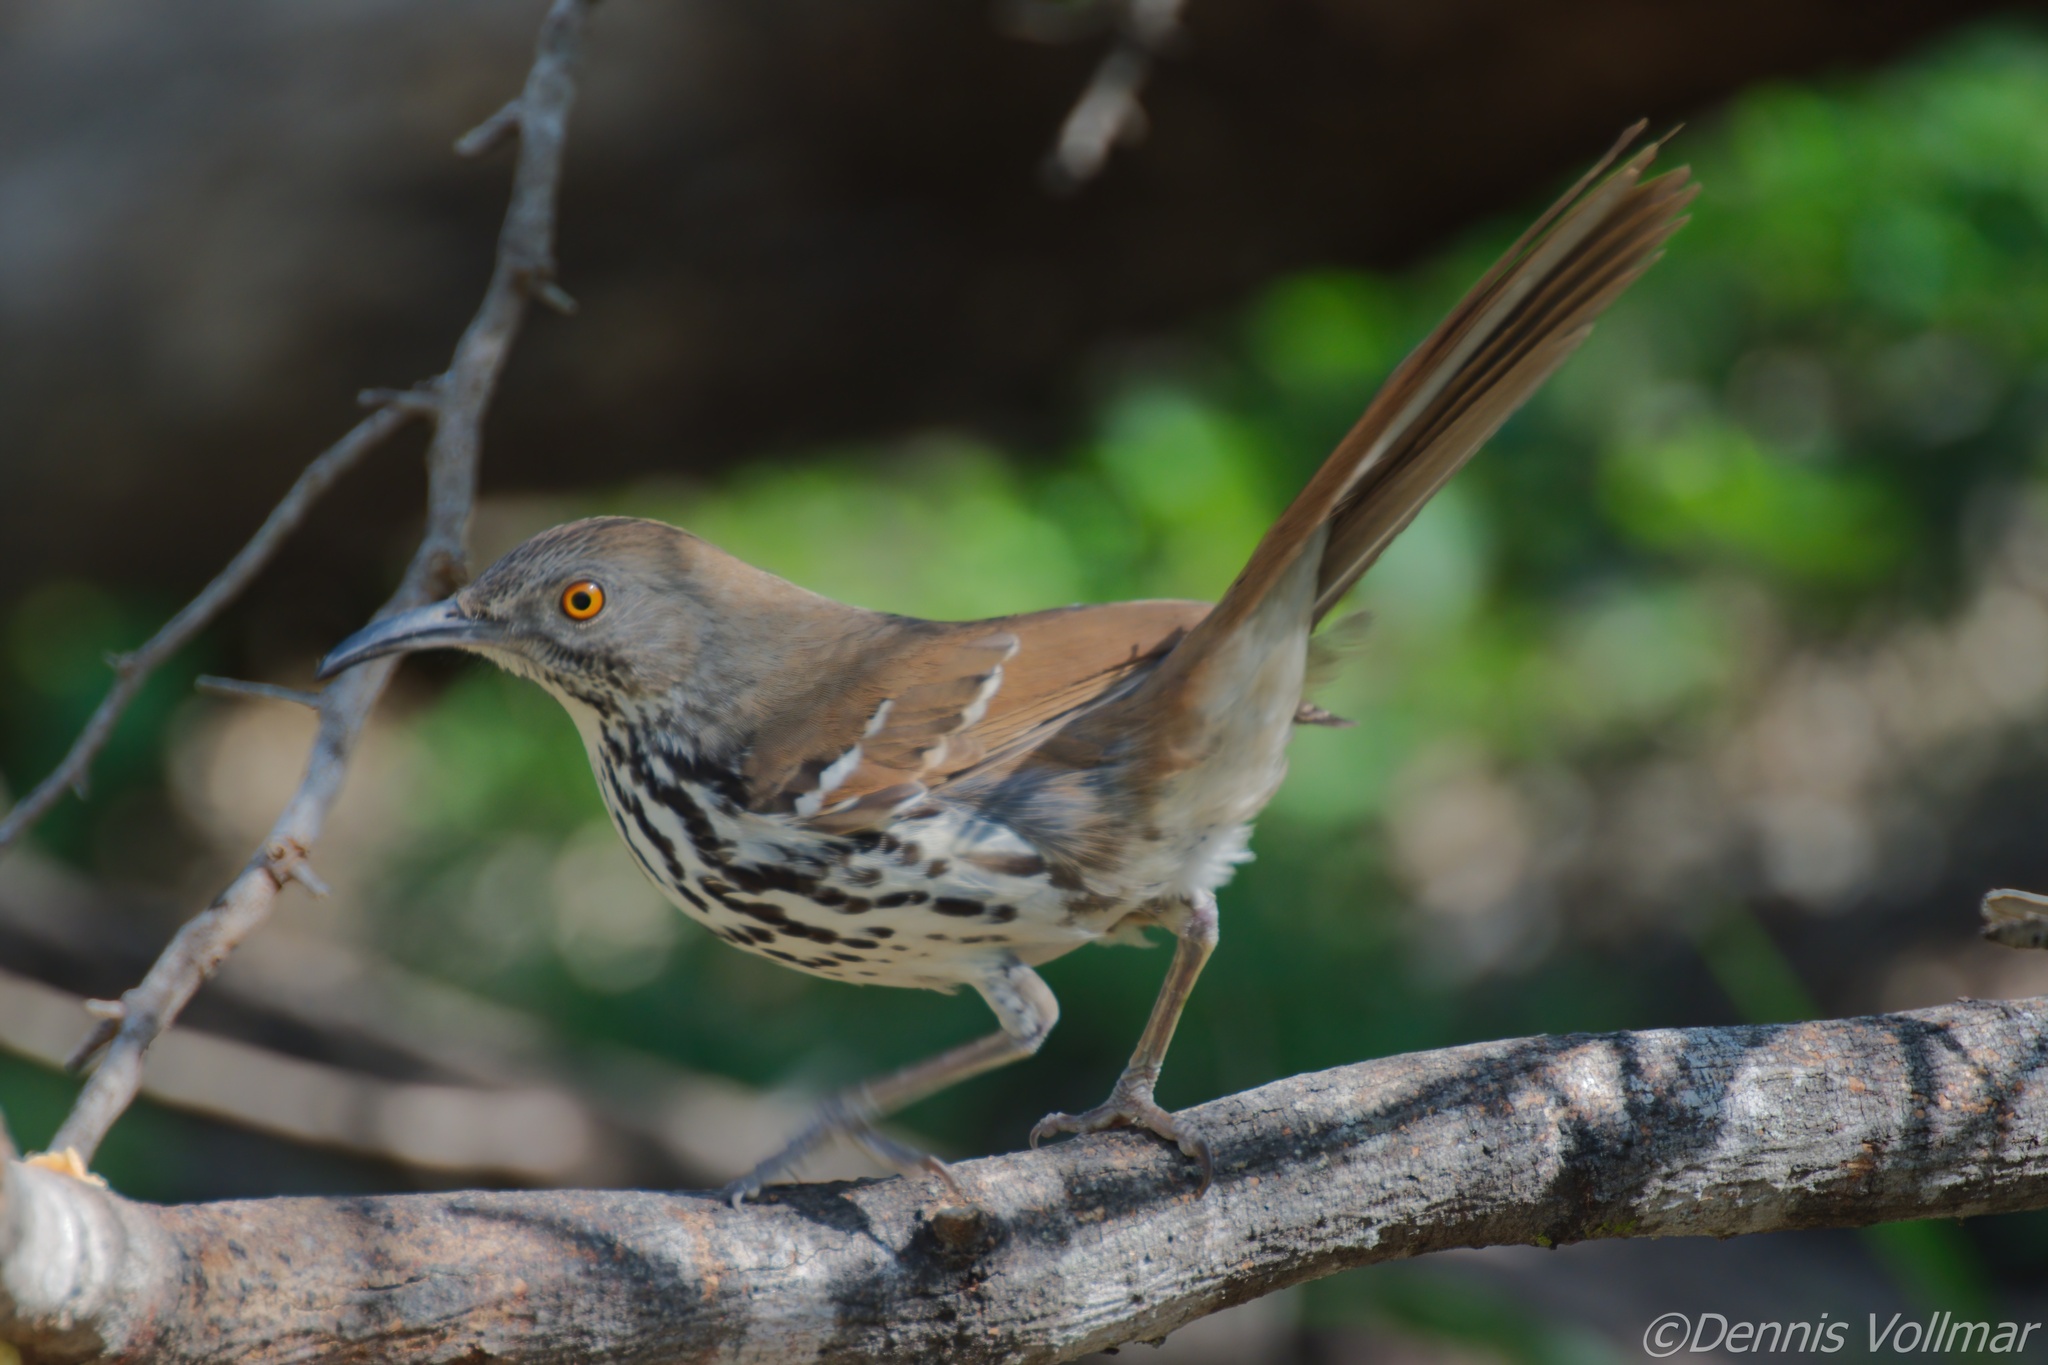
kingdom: Animalia
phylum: Chordata
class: Aves
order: Passeriformes
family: Mimidae
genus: Toxostoma
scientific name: Toxostoma longirostre
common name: Long-billed thrasher
